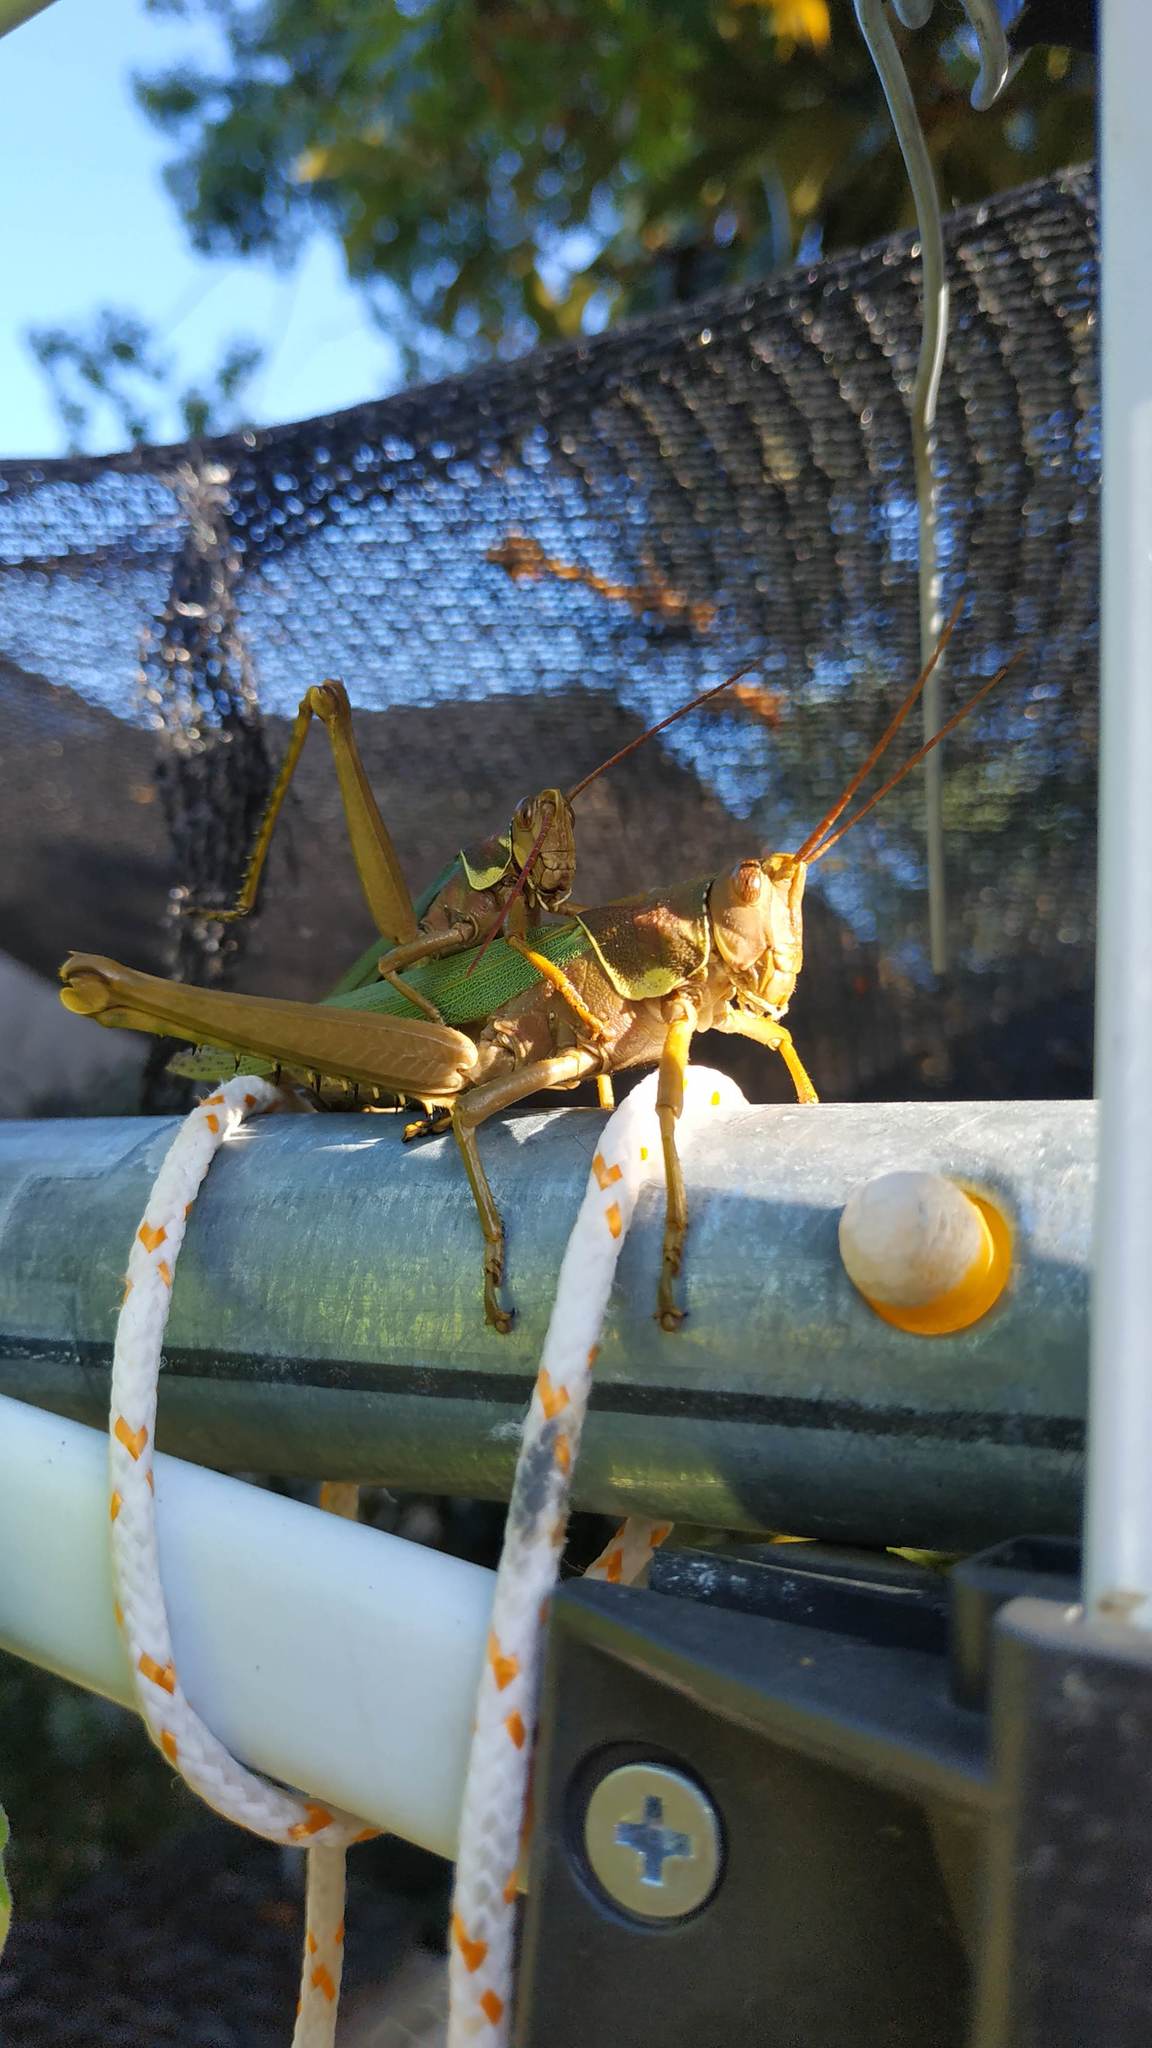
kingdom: Animalia
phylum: Arthropoda
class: Insecta
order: Orthoptera
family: Romaleidae
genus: Coryacris
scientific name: Coryacris angustipennis
